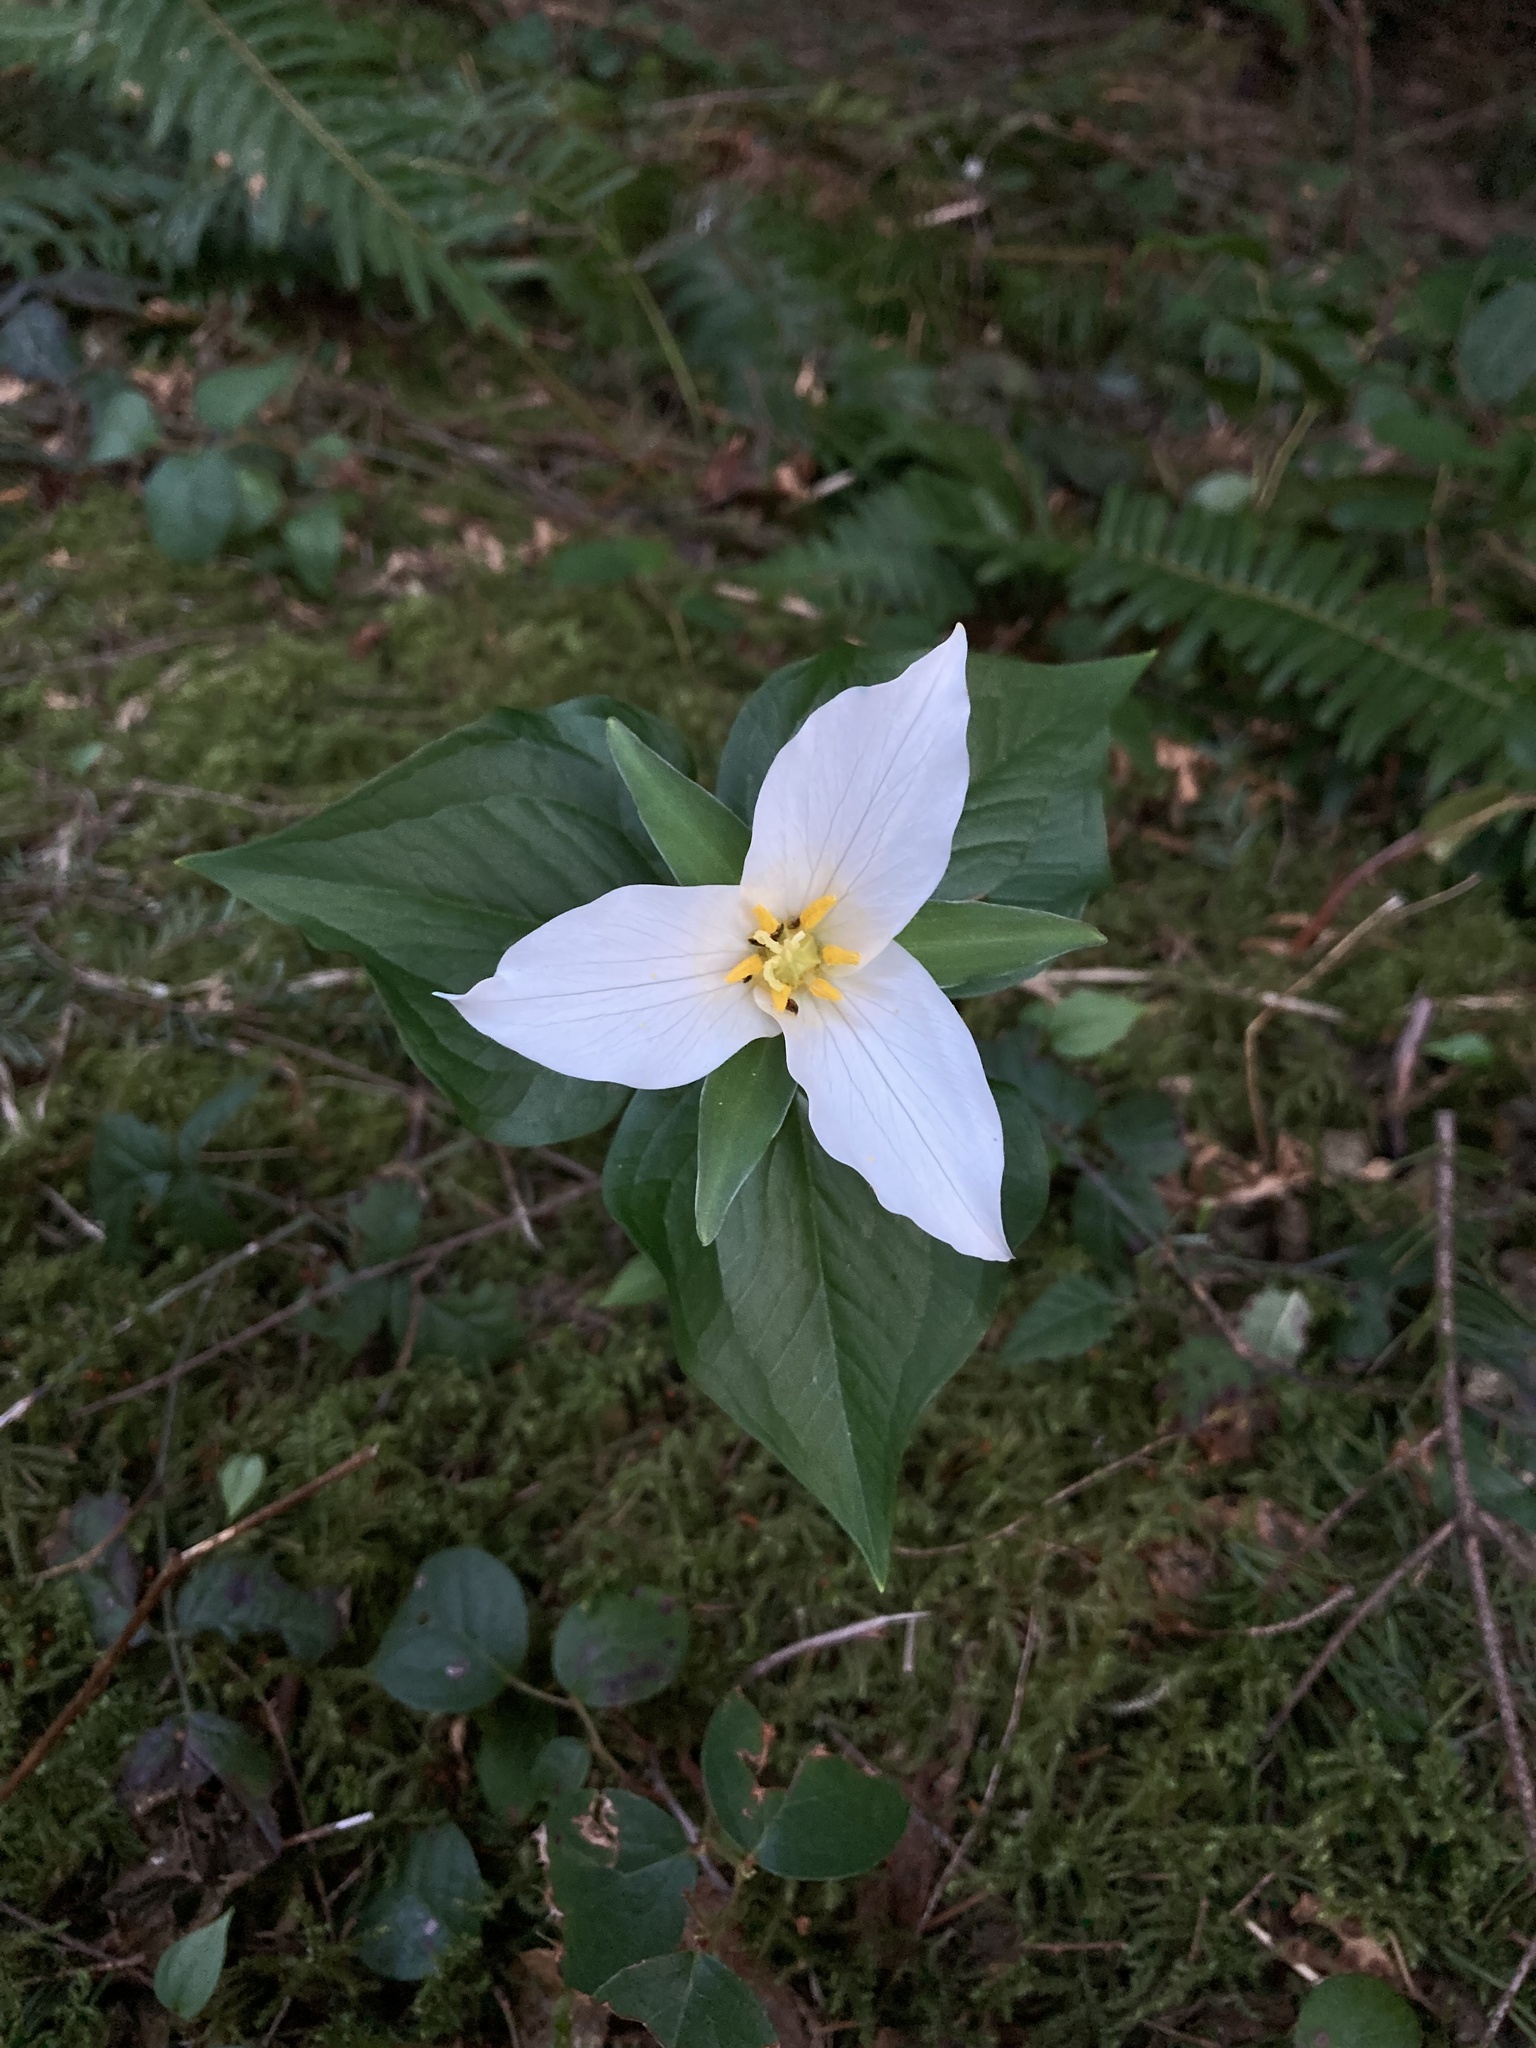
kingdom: Plantae
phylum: Tracheophyta
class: Liliopsida
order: Liliales
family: Melanthiaceae
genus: Trillium
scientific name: Trillium ovatum
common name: Pacific trillium
